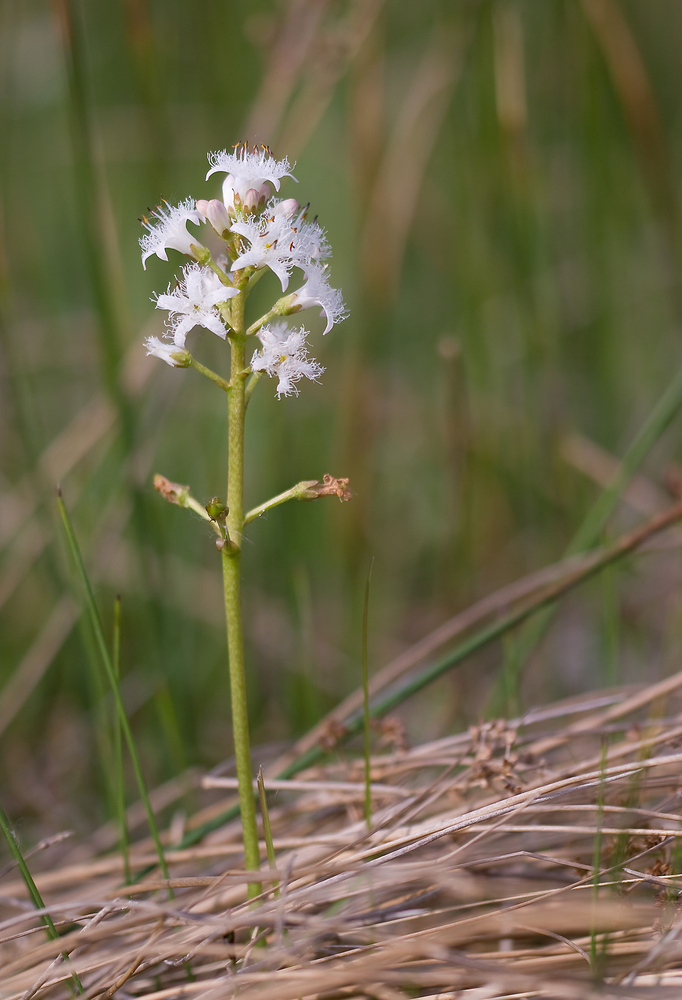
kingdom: Plantae
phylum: Tracheophyta
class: Magnoliopsida
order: Asterales
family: Menyanthaceae
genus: Menyanthes
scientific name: Menyanthes trifoliata
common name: Bogbean
